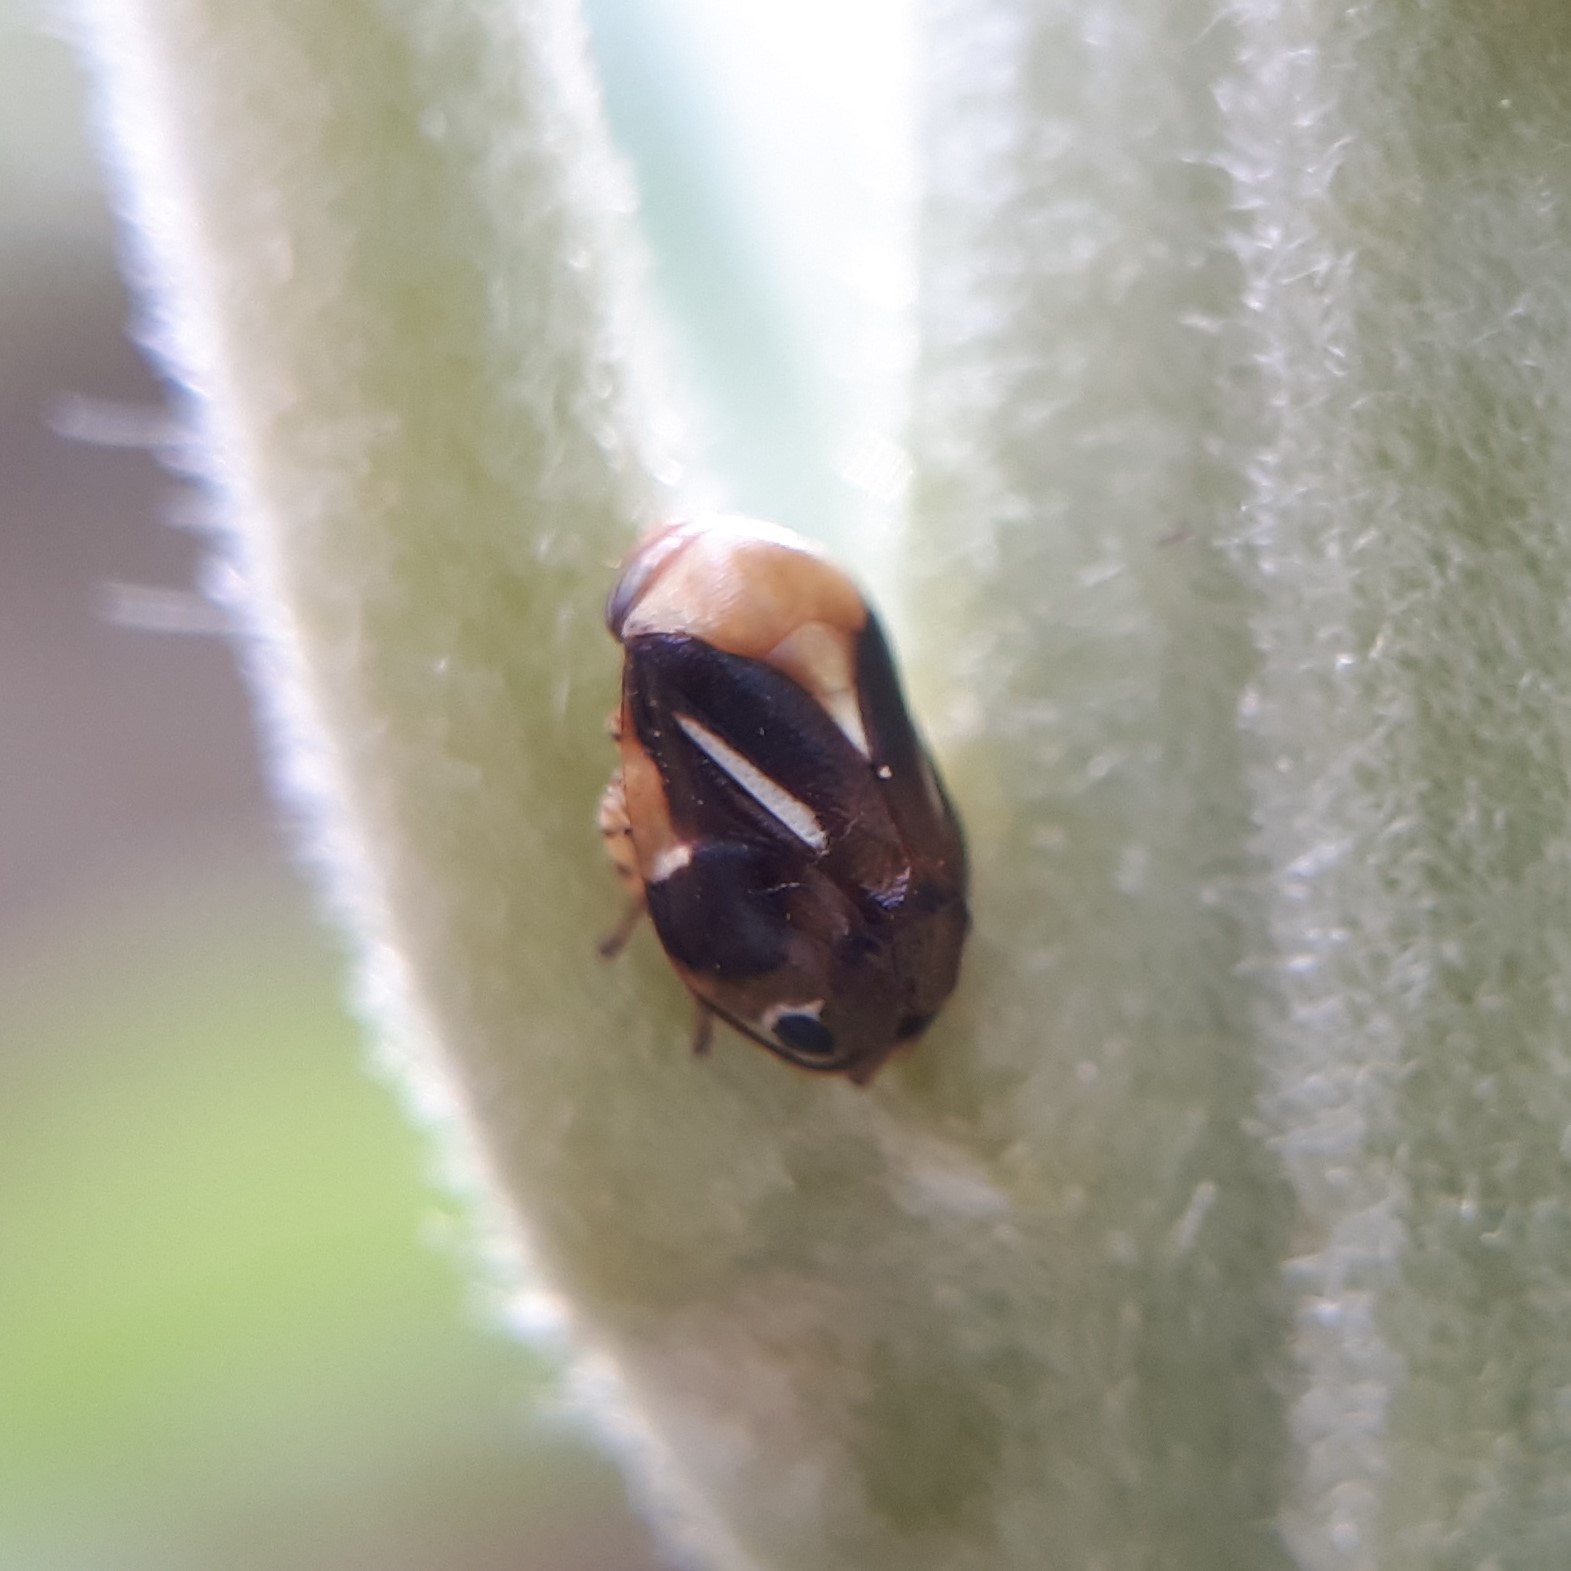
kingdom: Animalia
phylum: Arthropoda
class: Insecta
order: Hemiptera
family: Clastopteridae
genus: Clastoptera
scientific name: Clastoptera cimicoides
